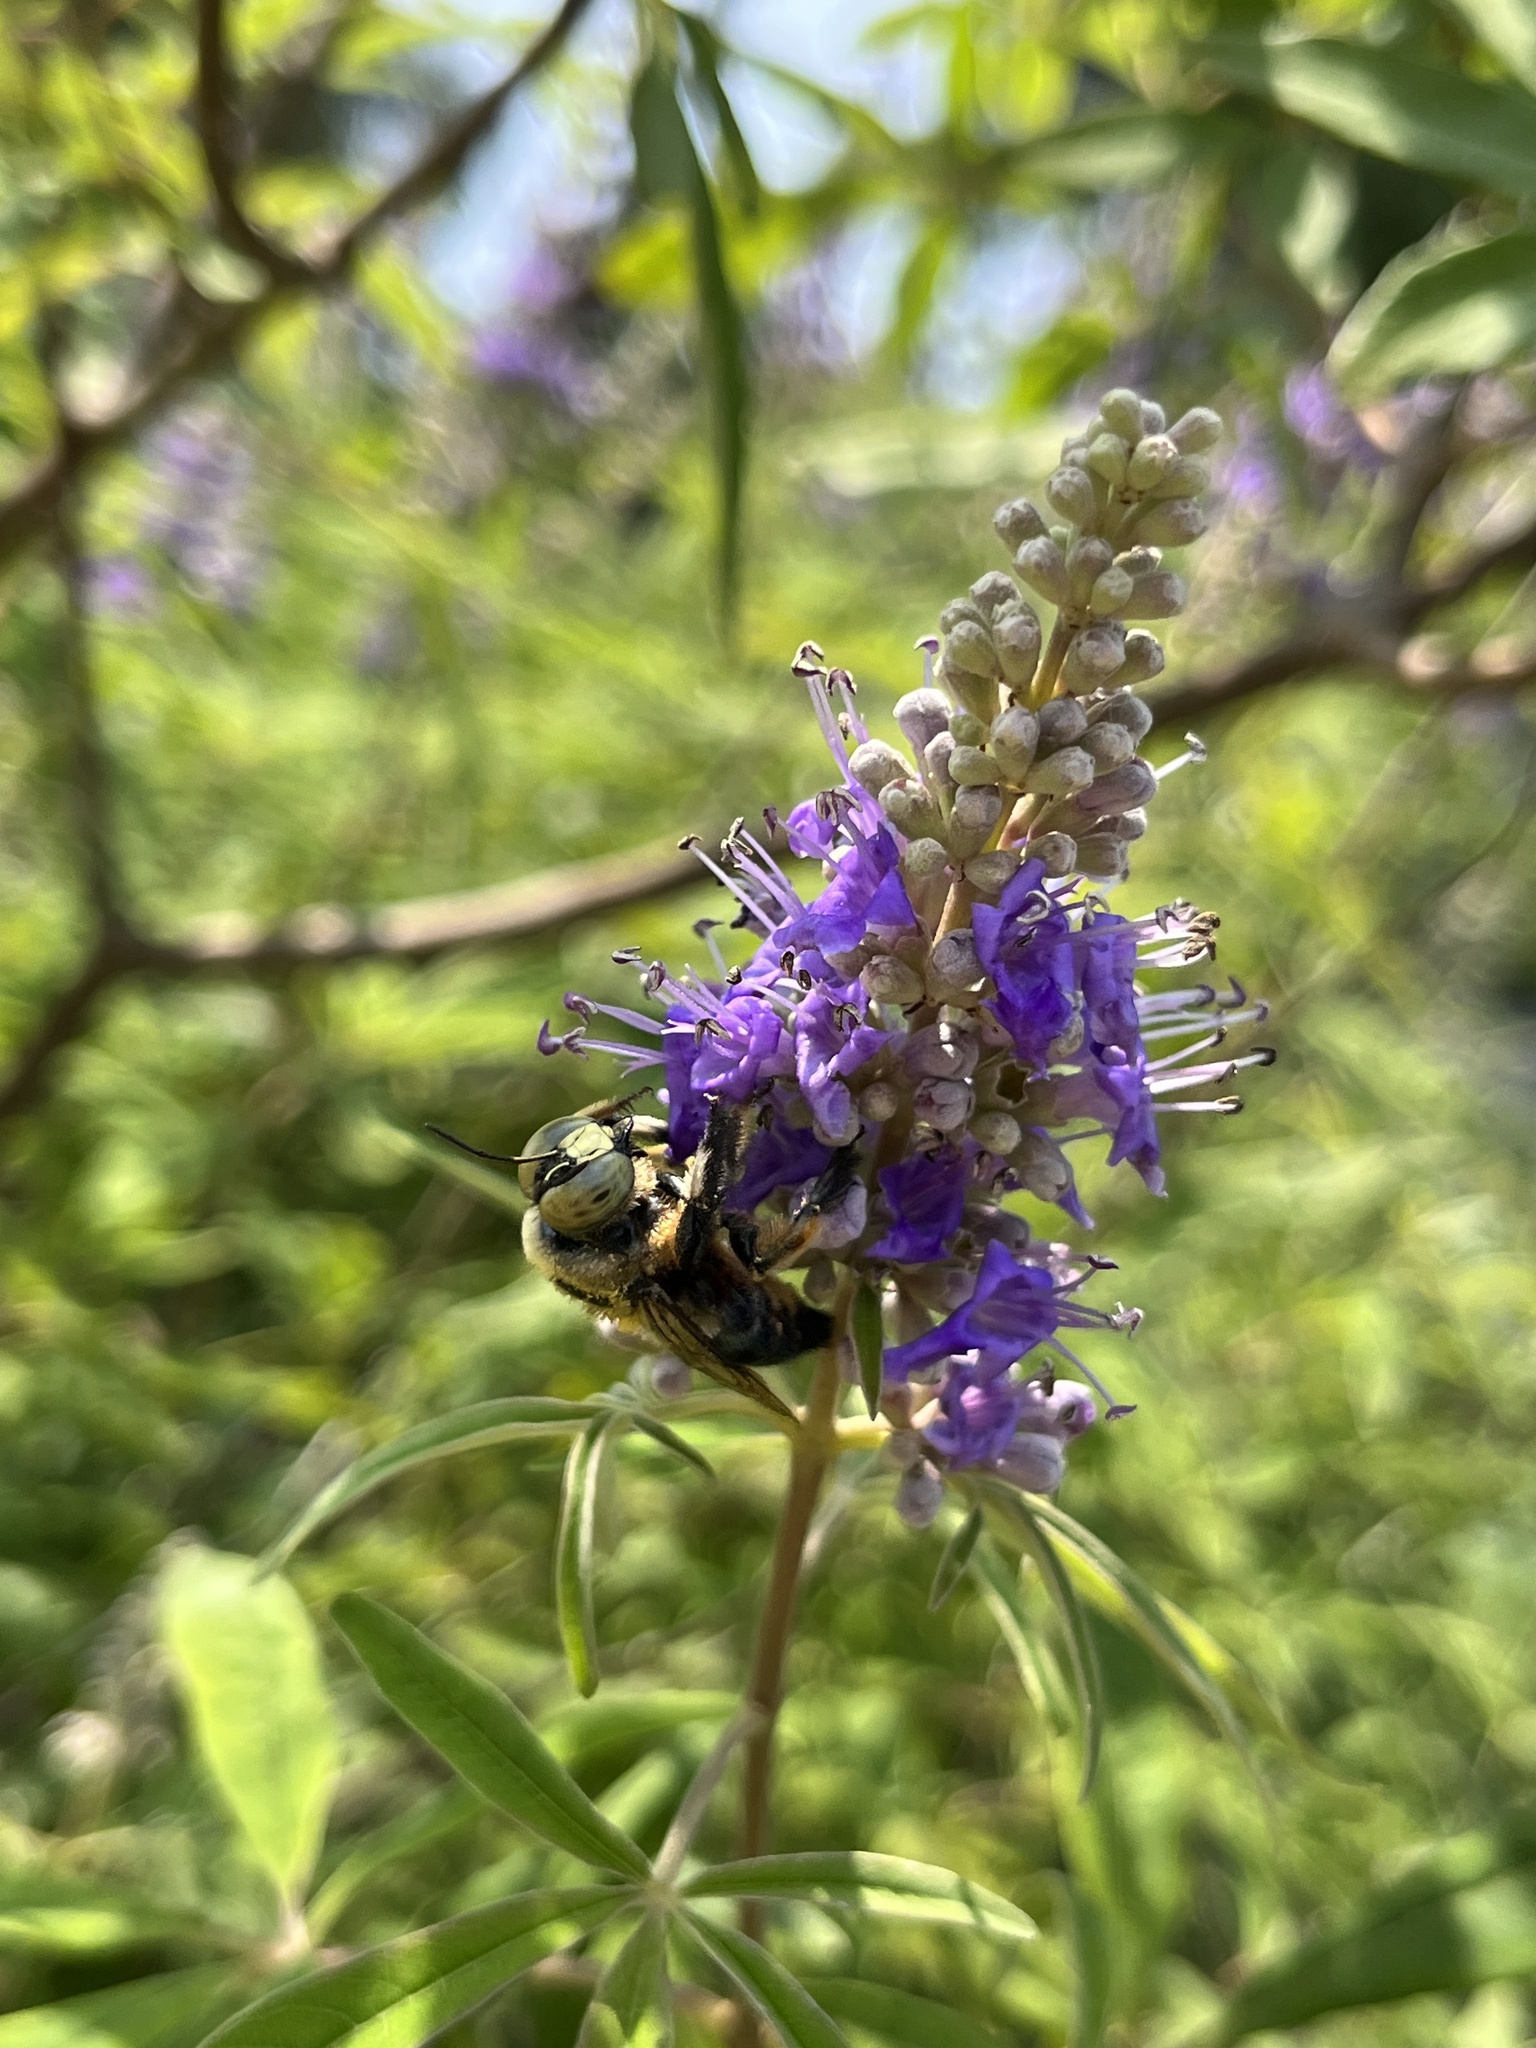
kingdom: Animalia
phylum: Arthropoda
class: Insecta
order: Hymenoptera
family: Apidae
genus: Xylocopa
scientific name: Xylocopa virginica
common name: Carpenter bee
